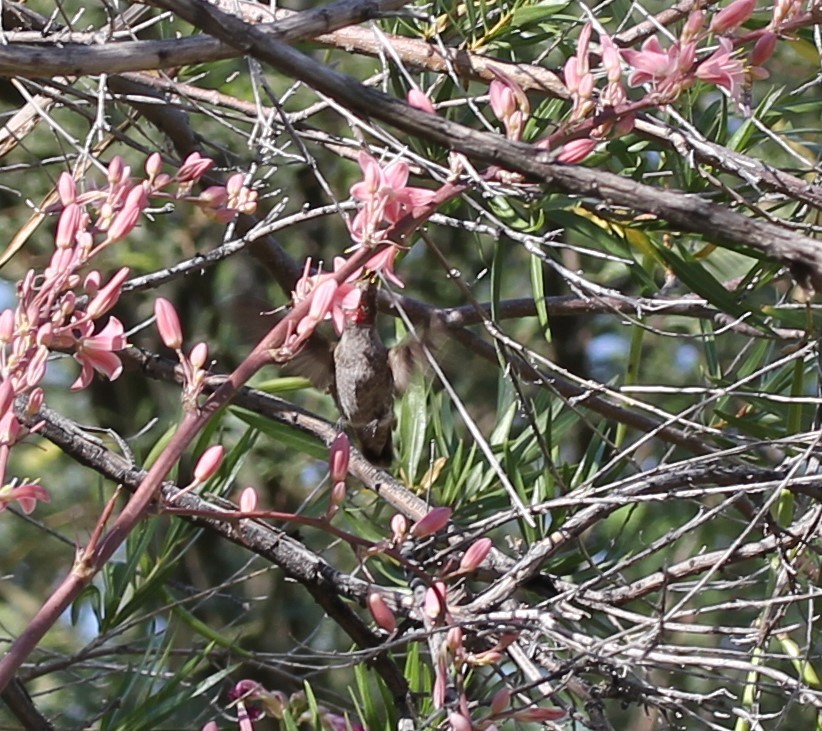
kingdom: Animalia
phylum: Chordata
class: Aves
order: Apodiformes
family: Trochilidae
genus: Calypte
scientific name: Calypte anna
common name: Anna's hummingbird
